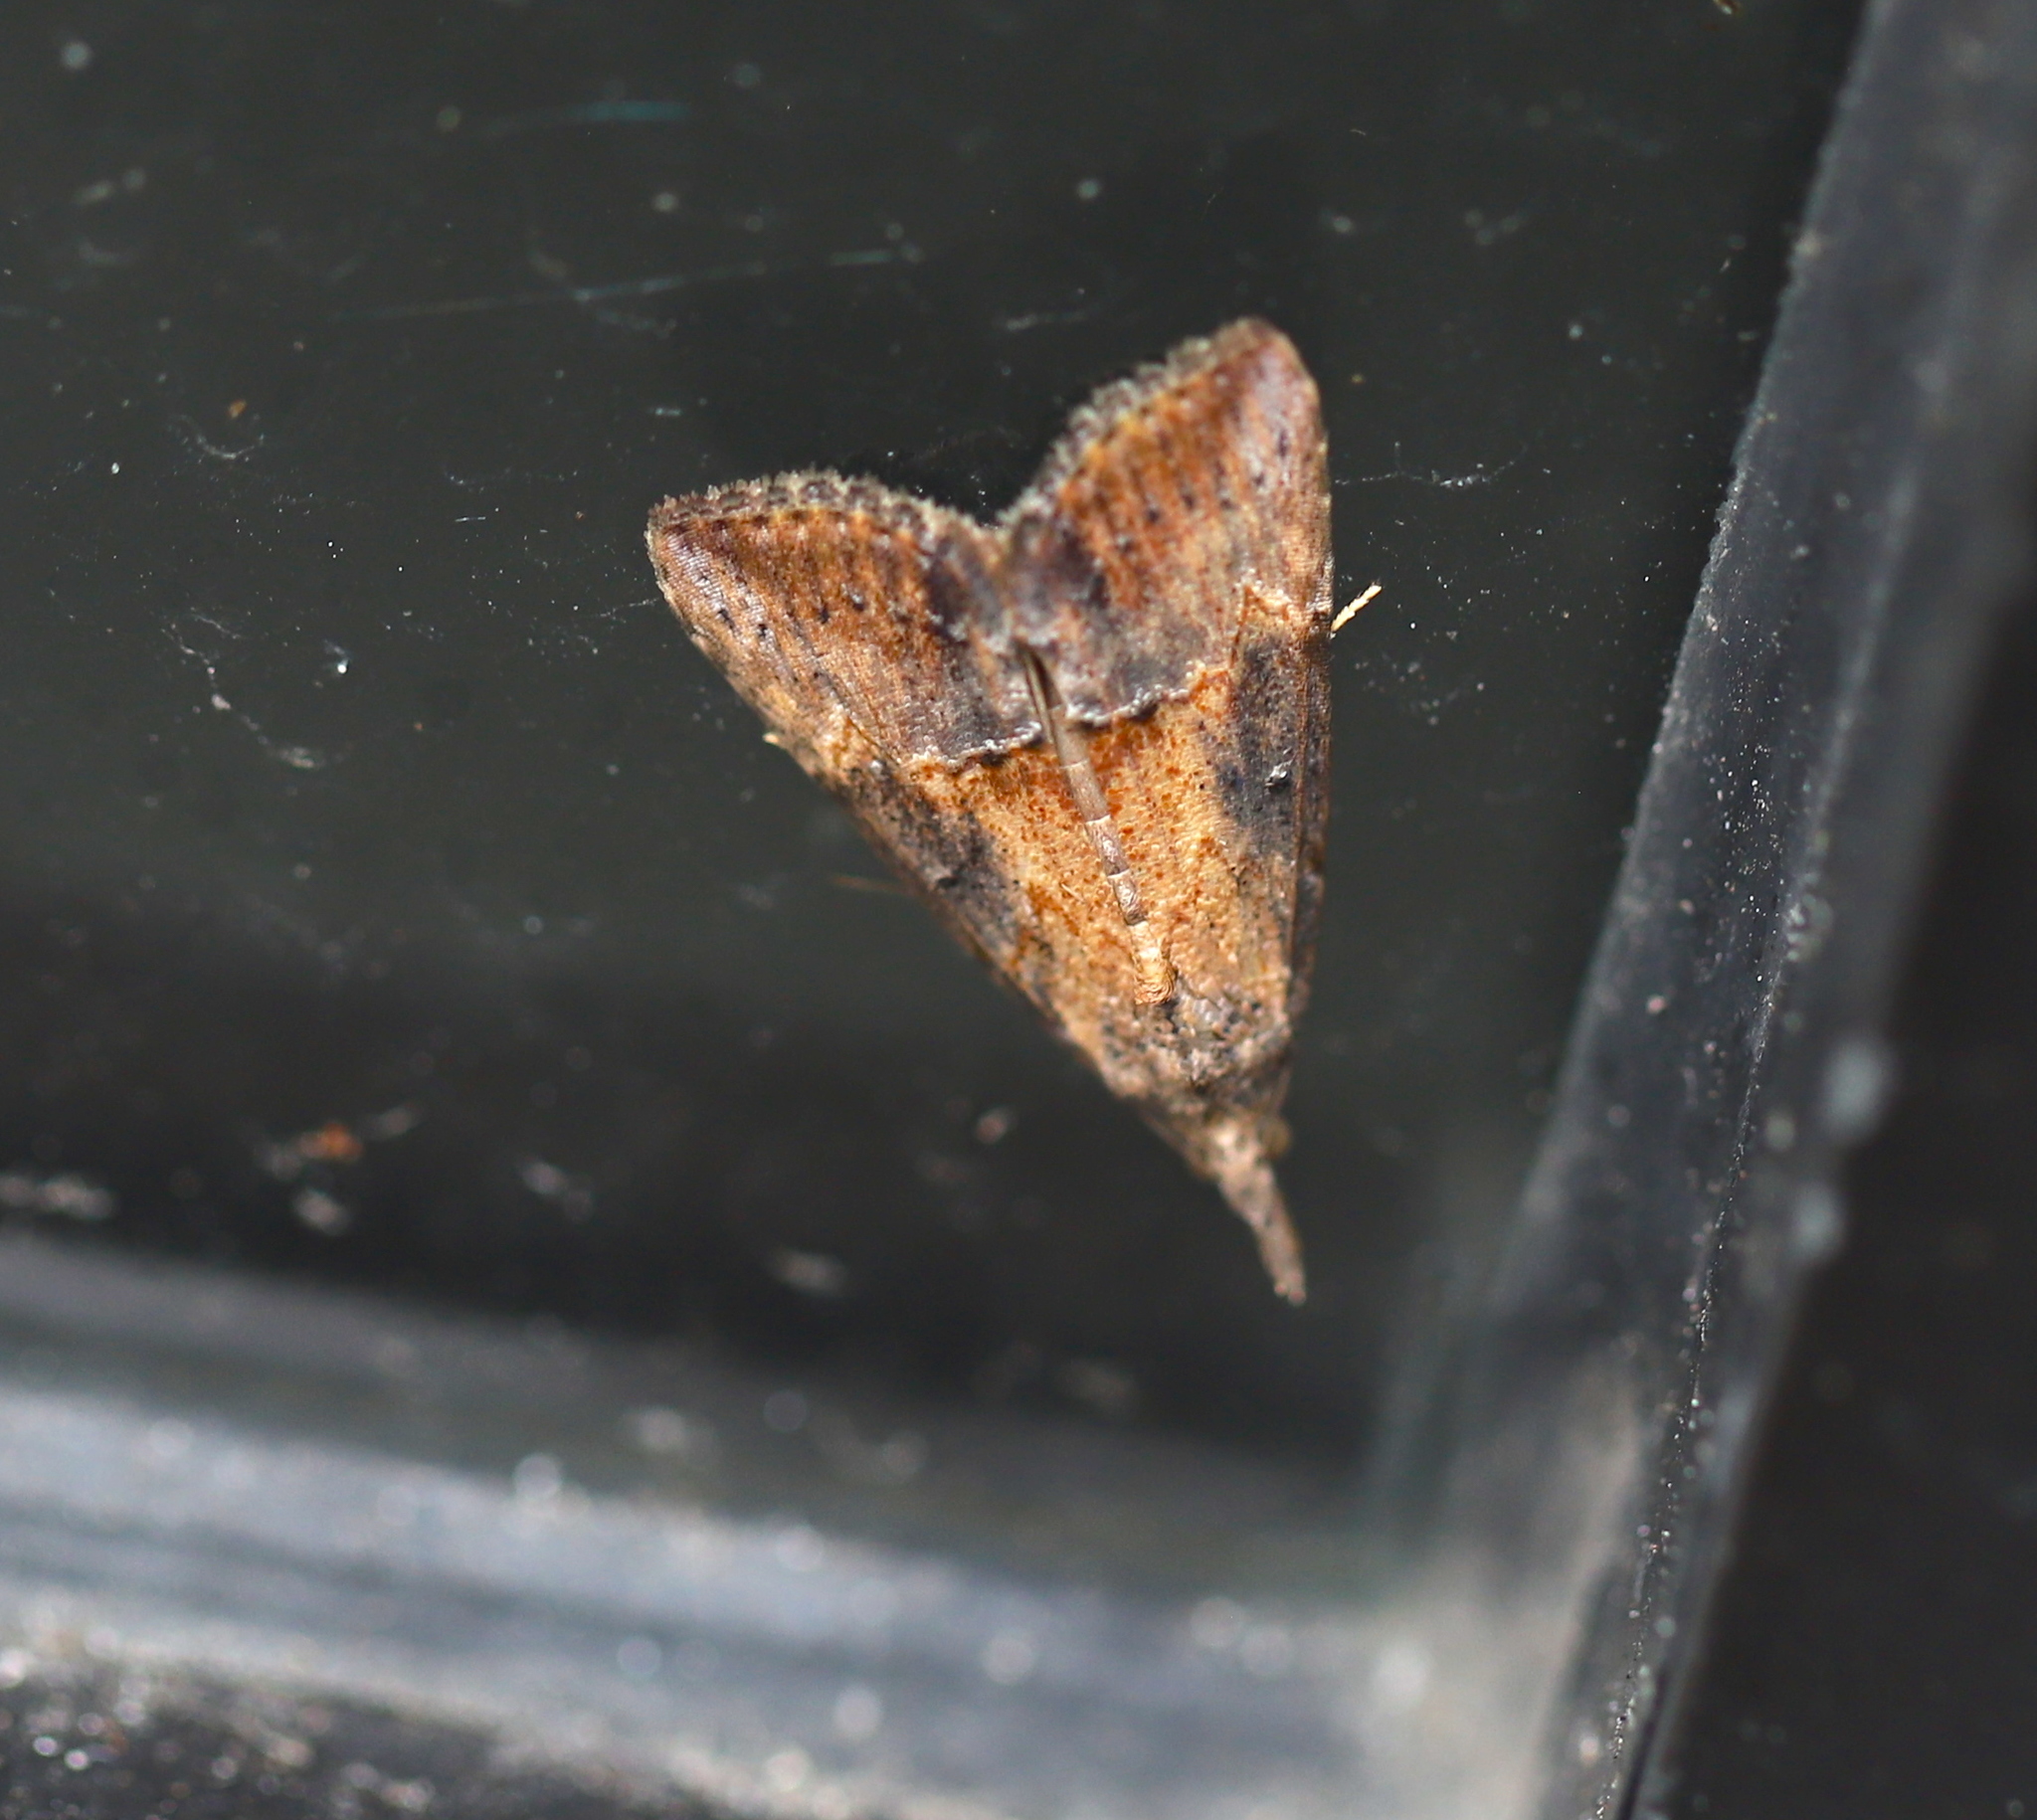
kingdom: Animalia
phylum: Arthropoda
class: Insecta
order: Lepidoptera
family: Erebidae
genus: Hypena
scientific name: Hypena scabra
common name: Green cloverworm
